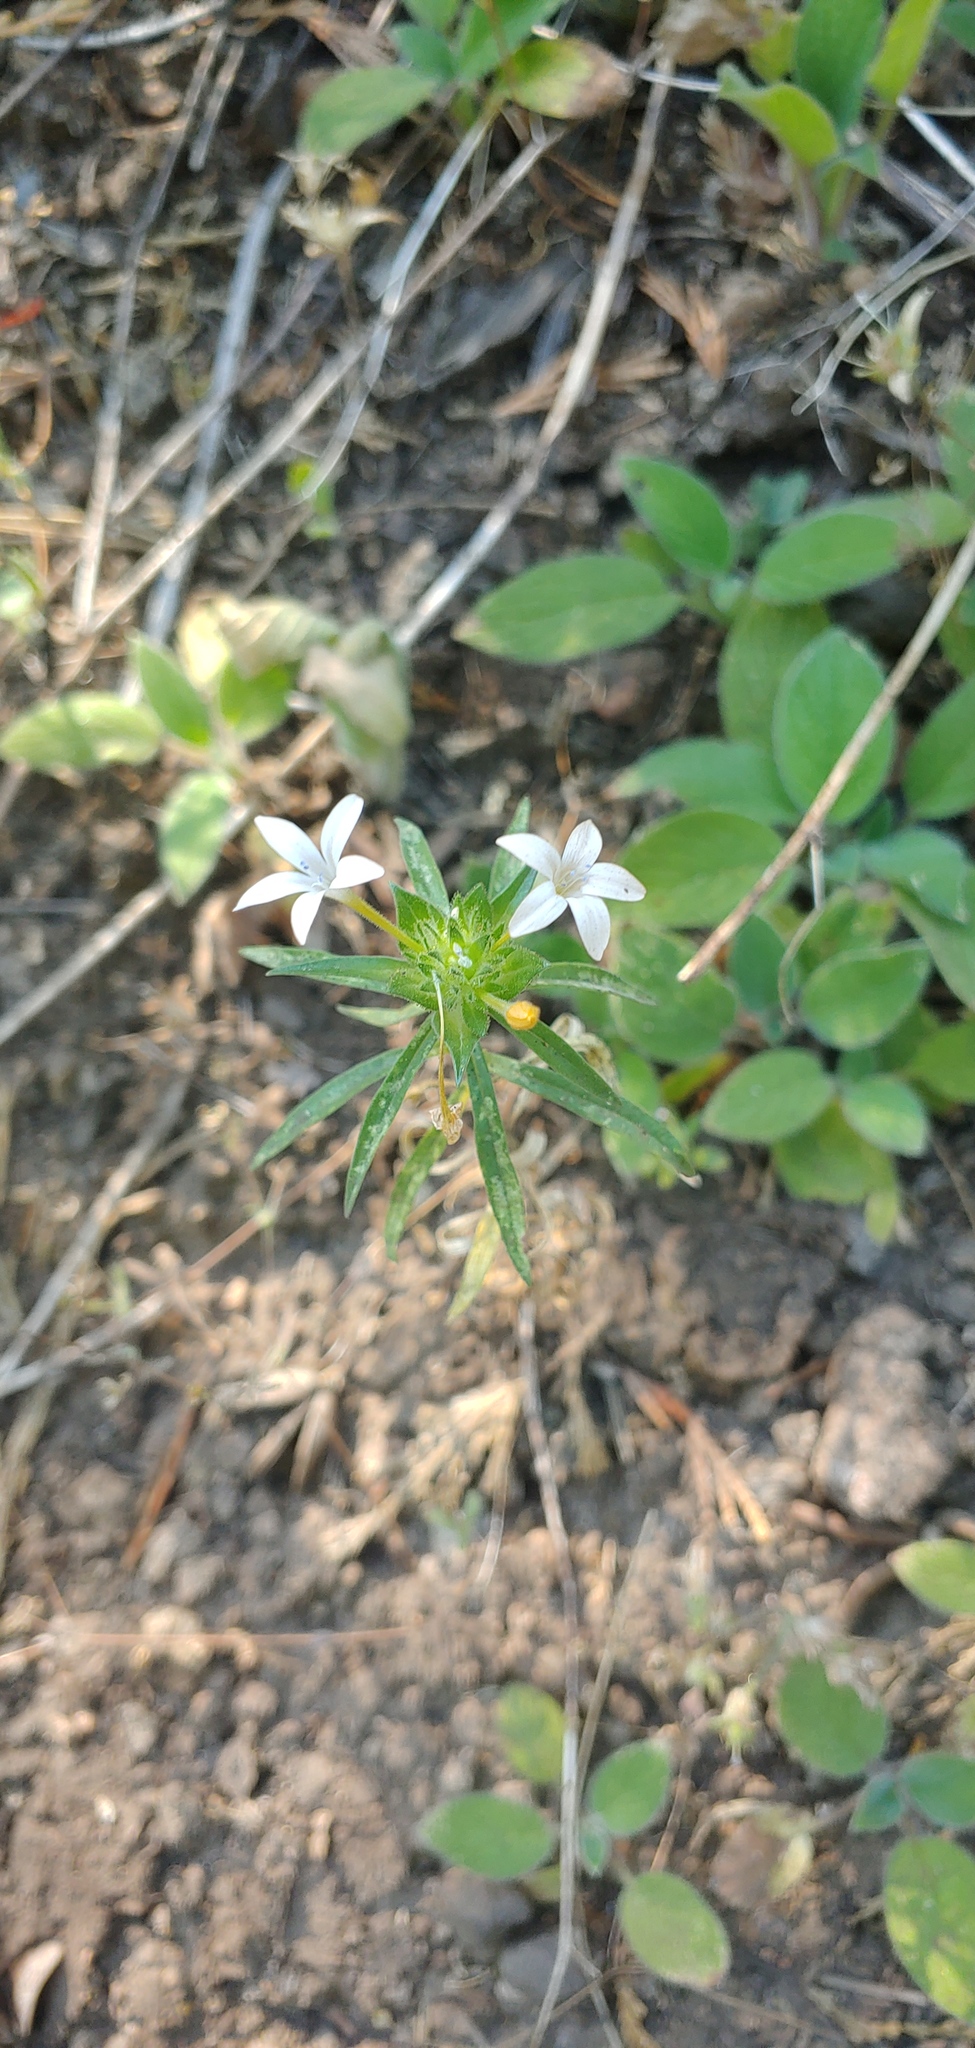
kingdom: Plantae
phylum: Tracheophyta
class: Magnoliopsida
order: Ericales
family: Polemoniaceae
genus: Collomia
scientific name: Collomia grandiflora
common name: California strawflower
